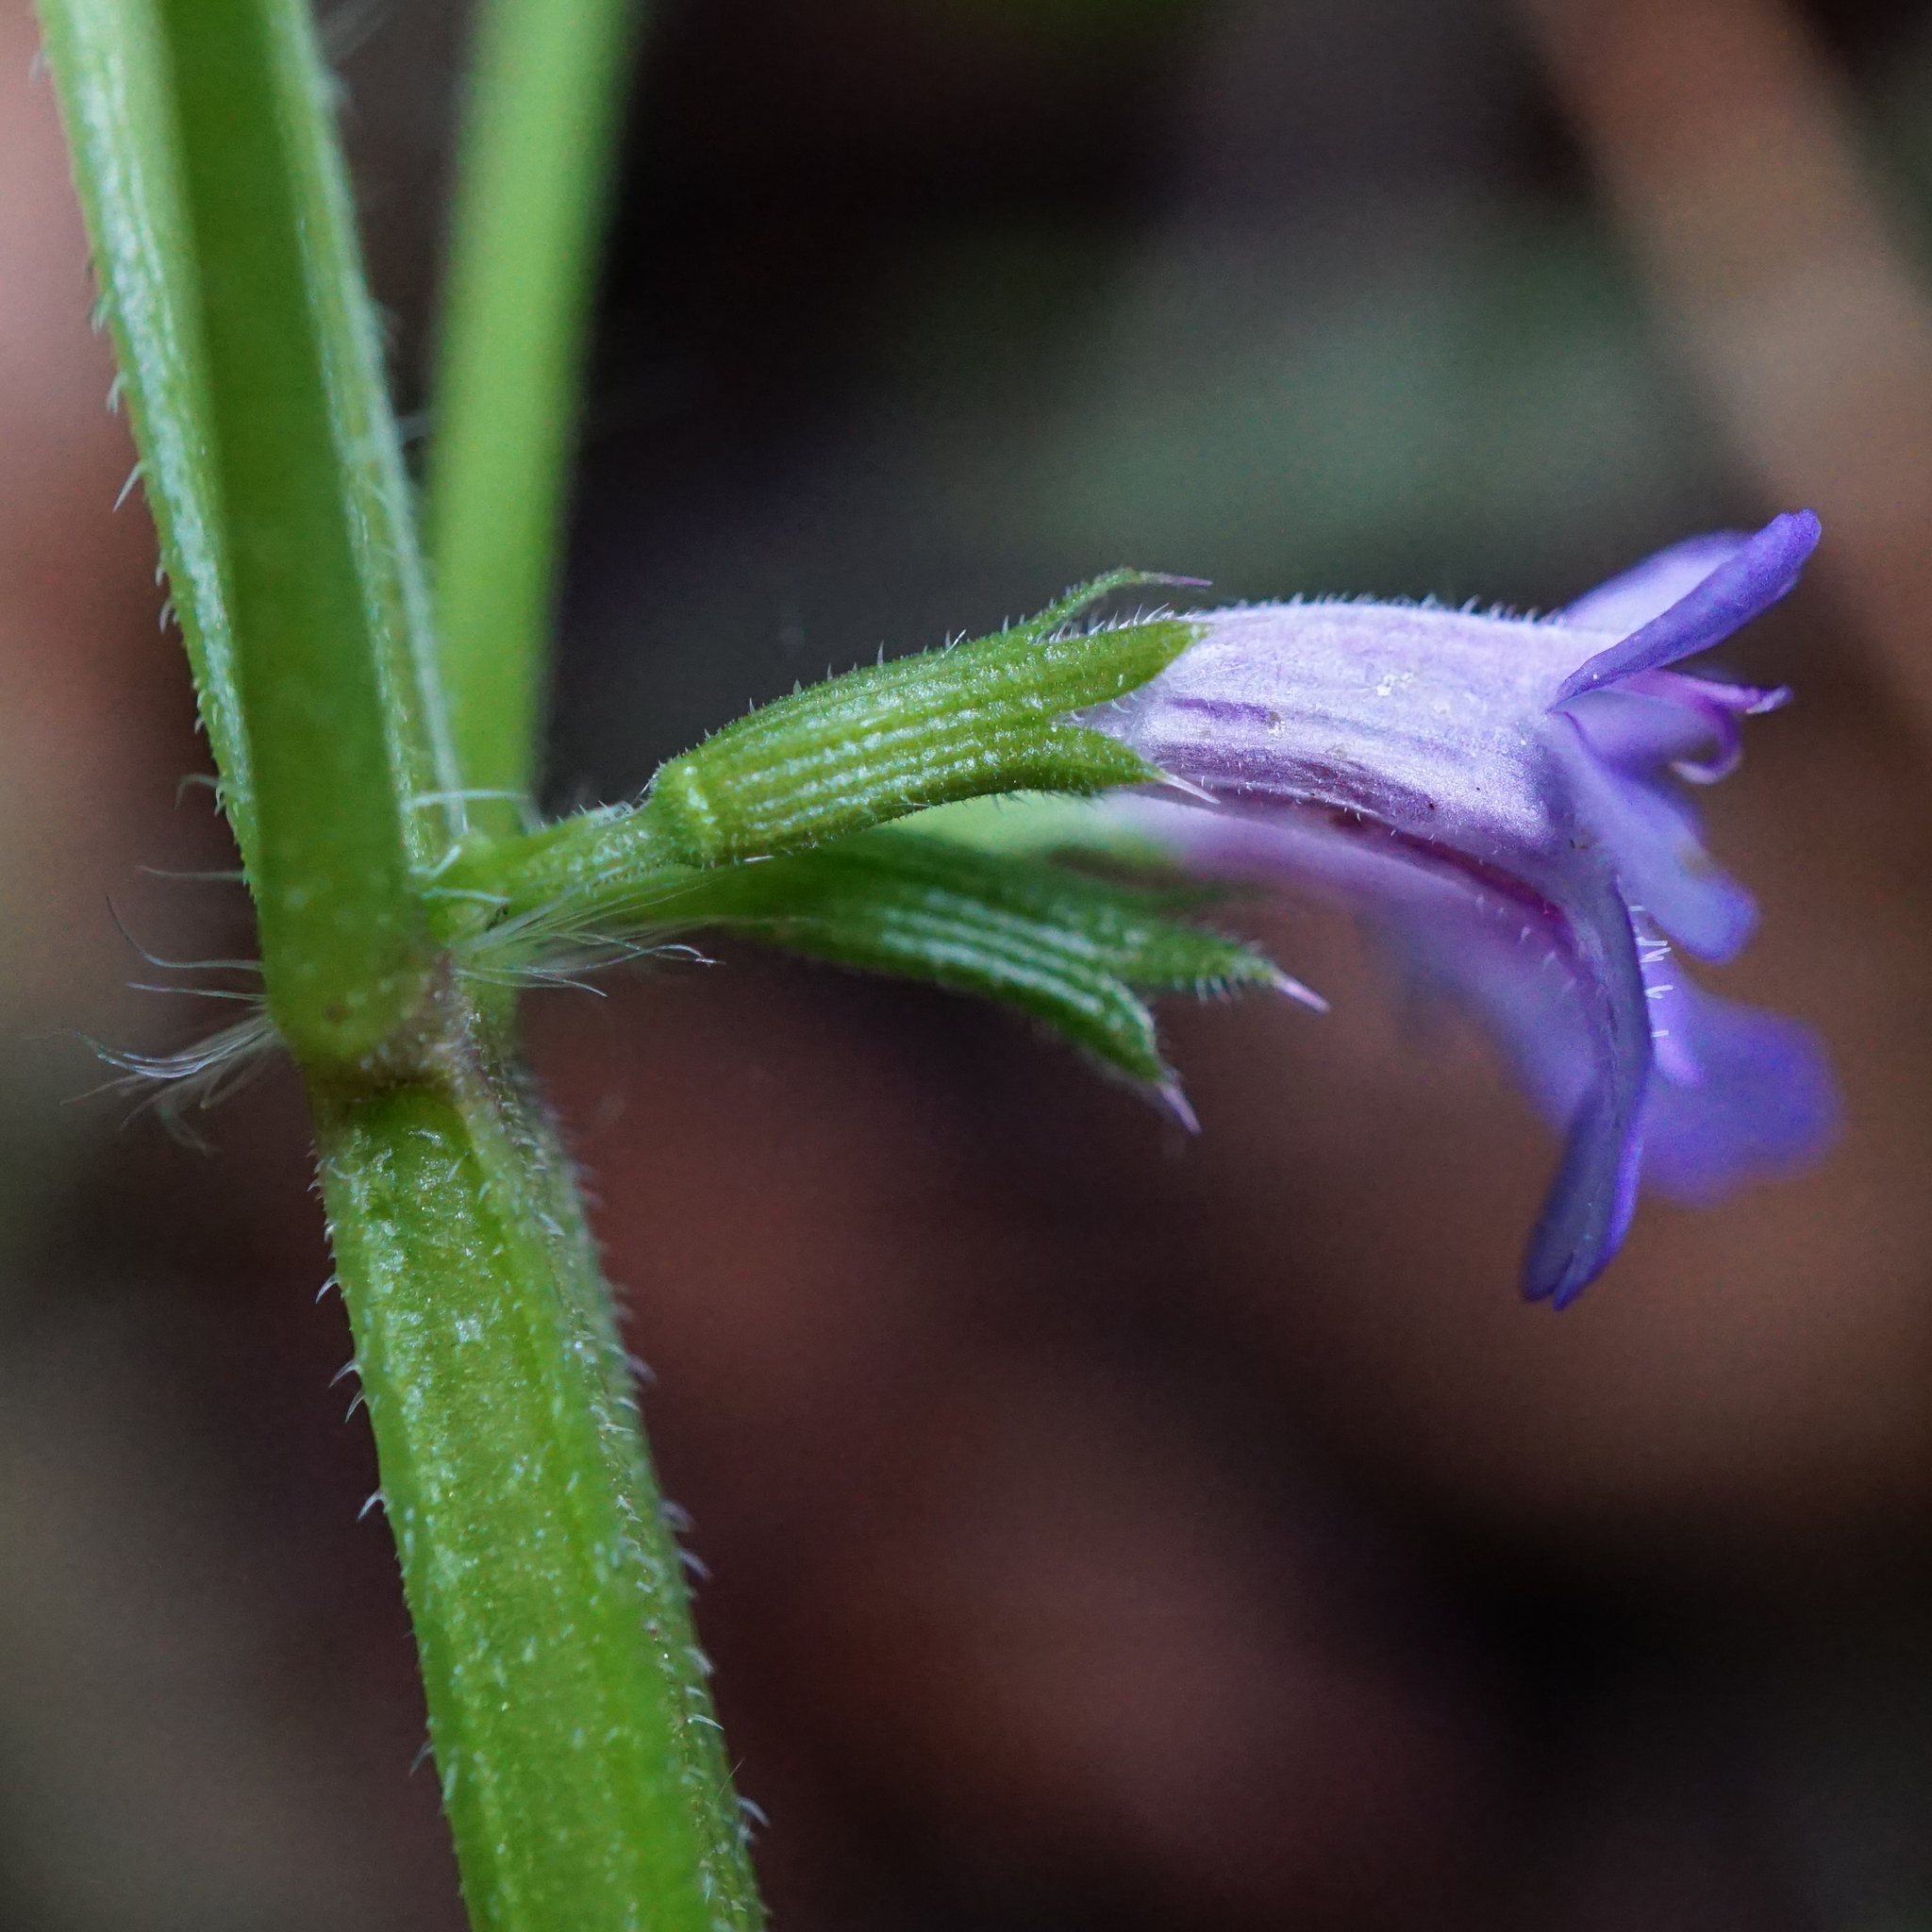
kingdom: Plantae
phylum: Tracheophyta
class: Magnoliopsida
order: Lamiales
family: Lamiaceae
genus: Glechoma
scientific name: Glechoma hederacea
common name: Ground ivy
